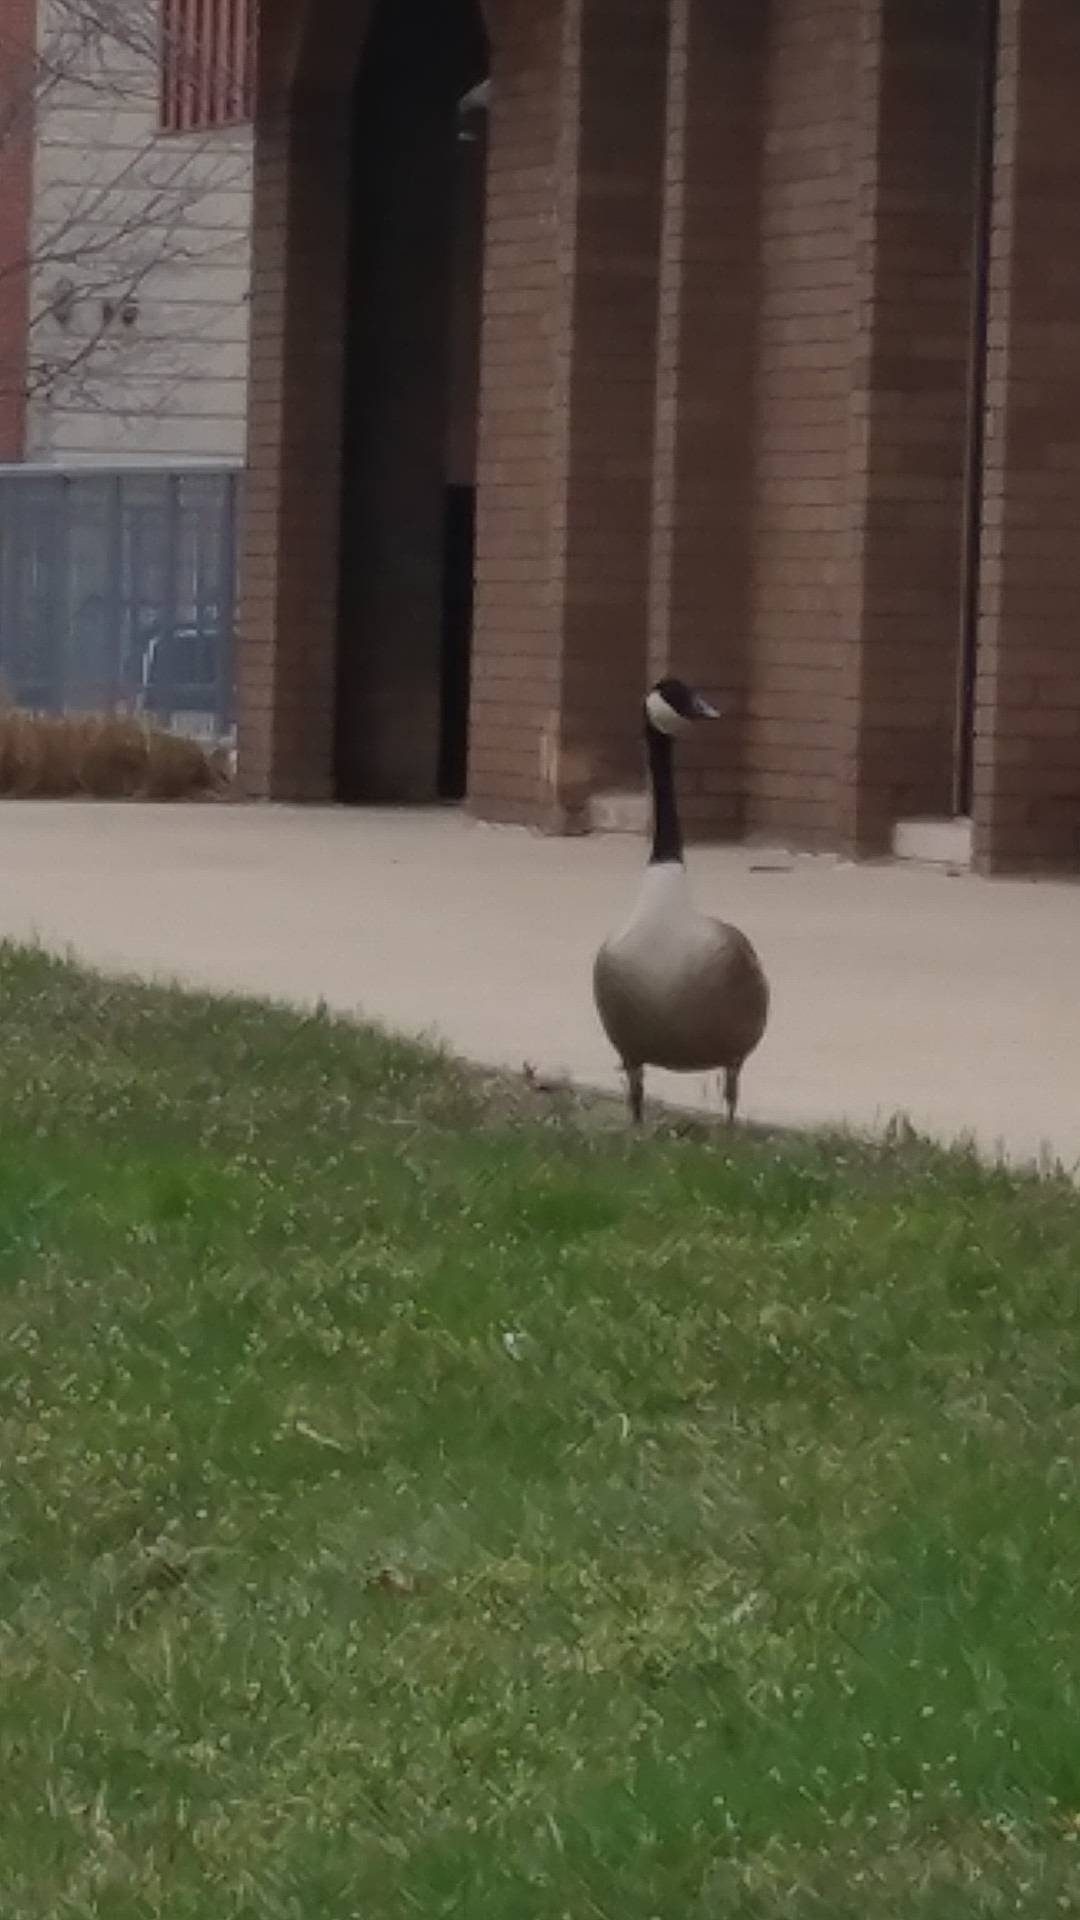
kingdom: Animalia
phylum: Chordata
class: Aves
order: Anseriformes
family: Anatidae
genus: Branta
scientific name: Branta canadensis
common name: Canada goose
